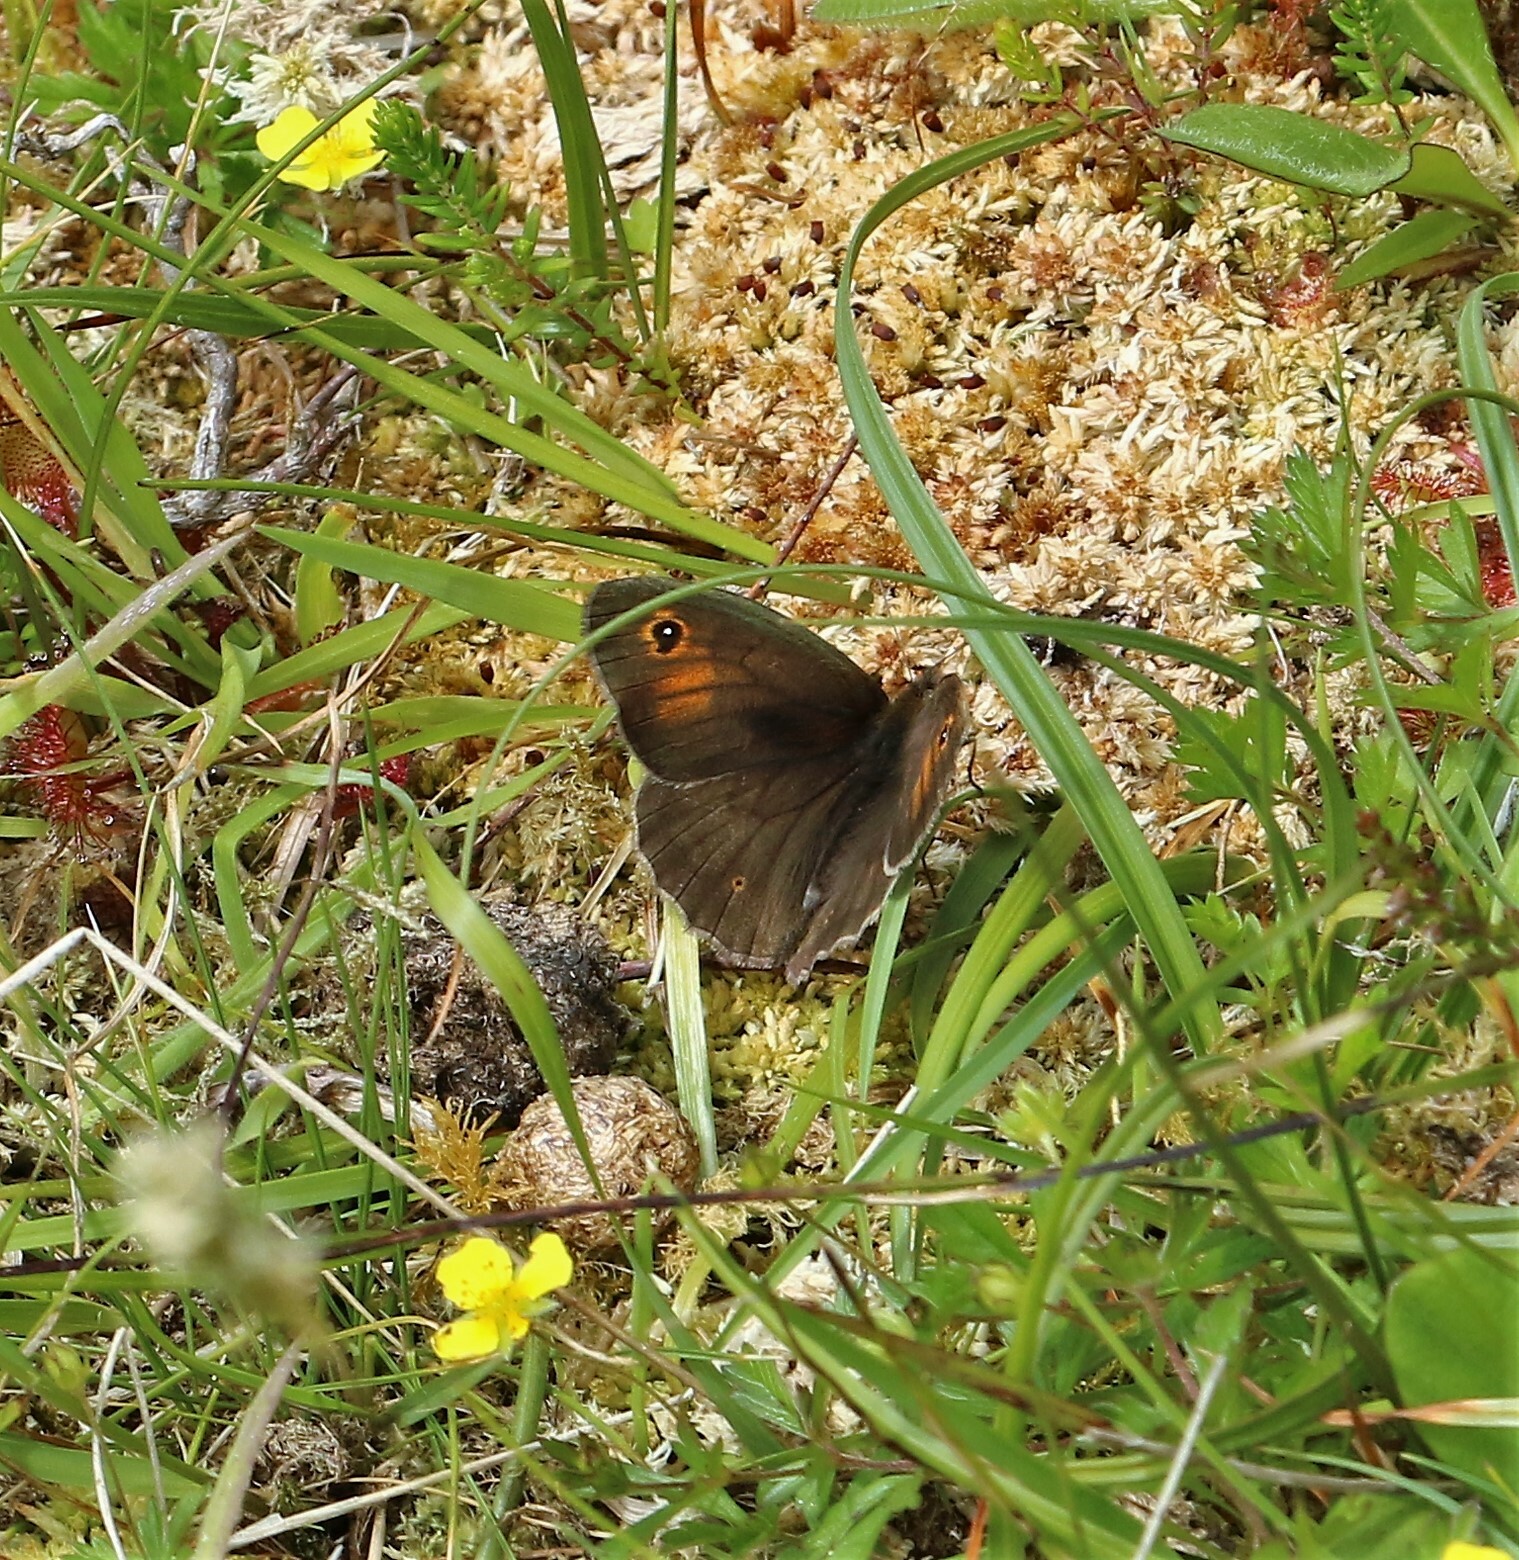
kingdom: Animalia
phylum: Arthropoda
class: Insecta
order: Lepidoptera
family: Nymphalidae
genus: Maniola
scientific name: Maniola jurtina
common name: Meadow brown
